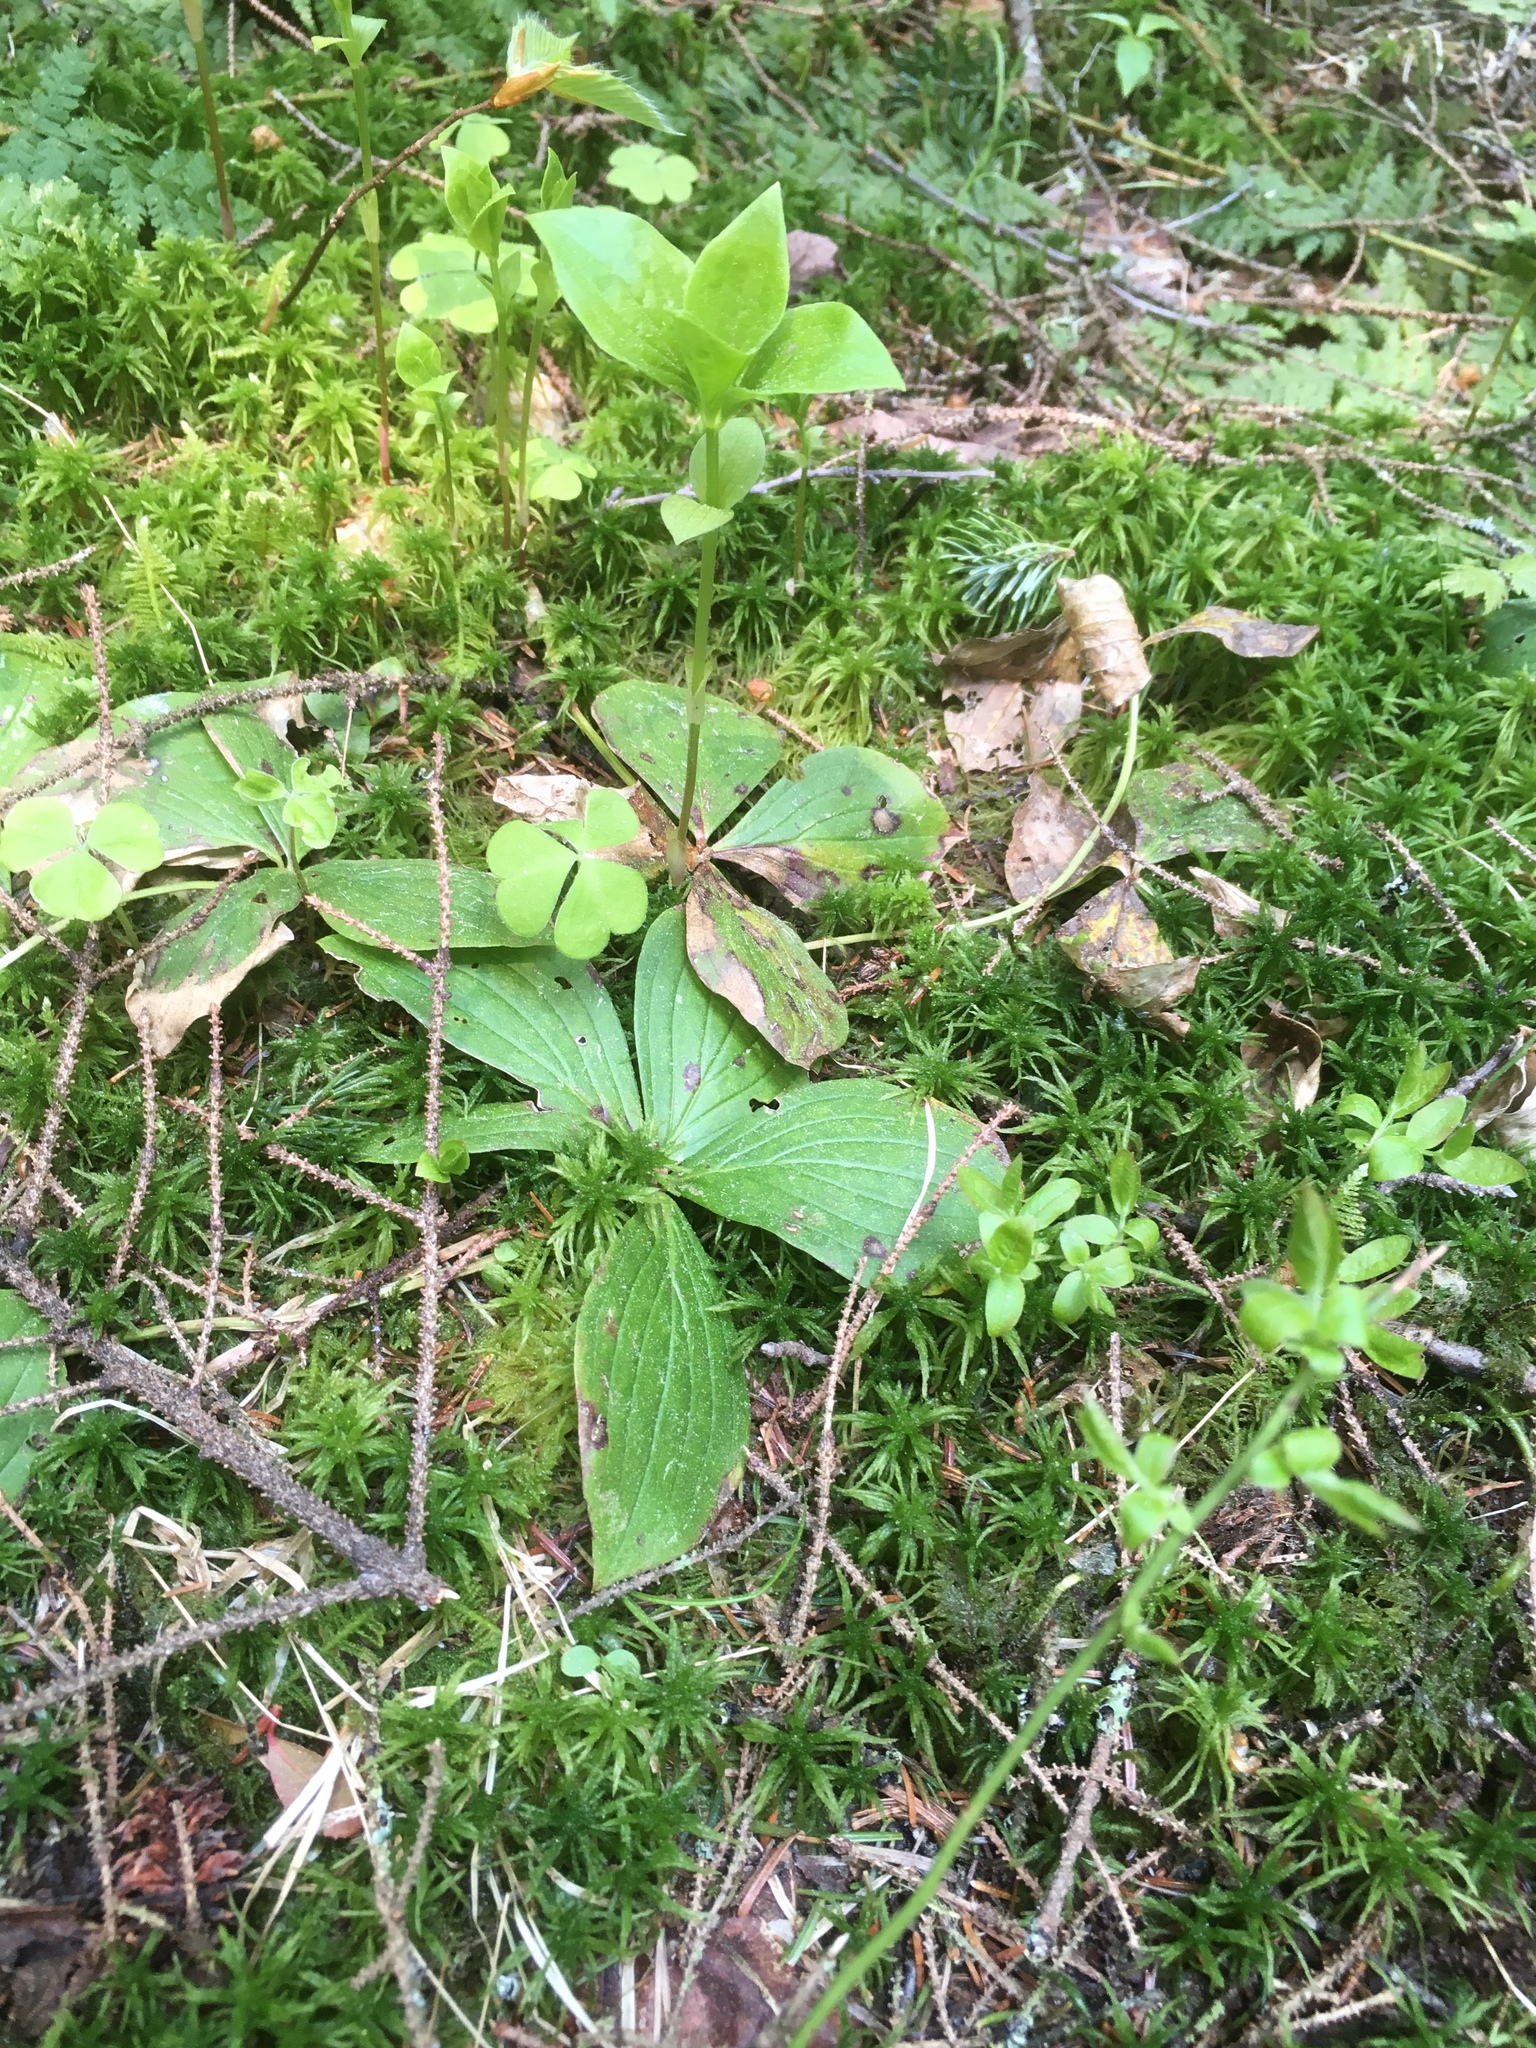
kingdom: Plantae
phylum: Tracheophyta
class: Magnoliopsida
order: Cornales
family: Cornaceae
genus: Cornus
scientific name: Cornus canadensis
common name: Creeping dogwood
